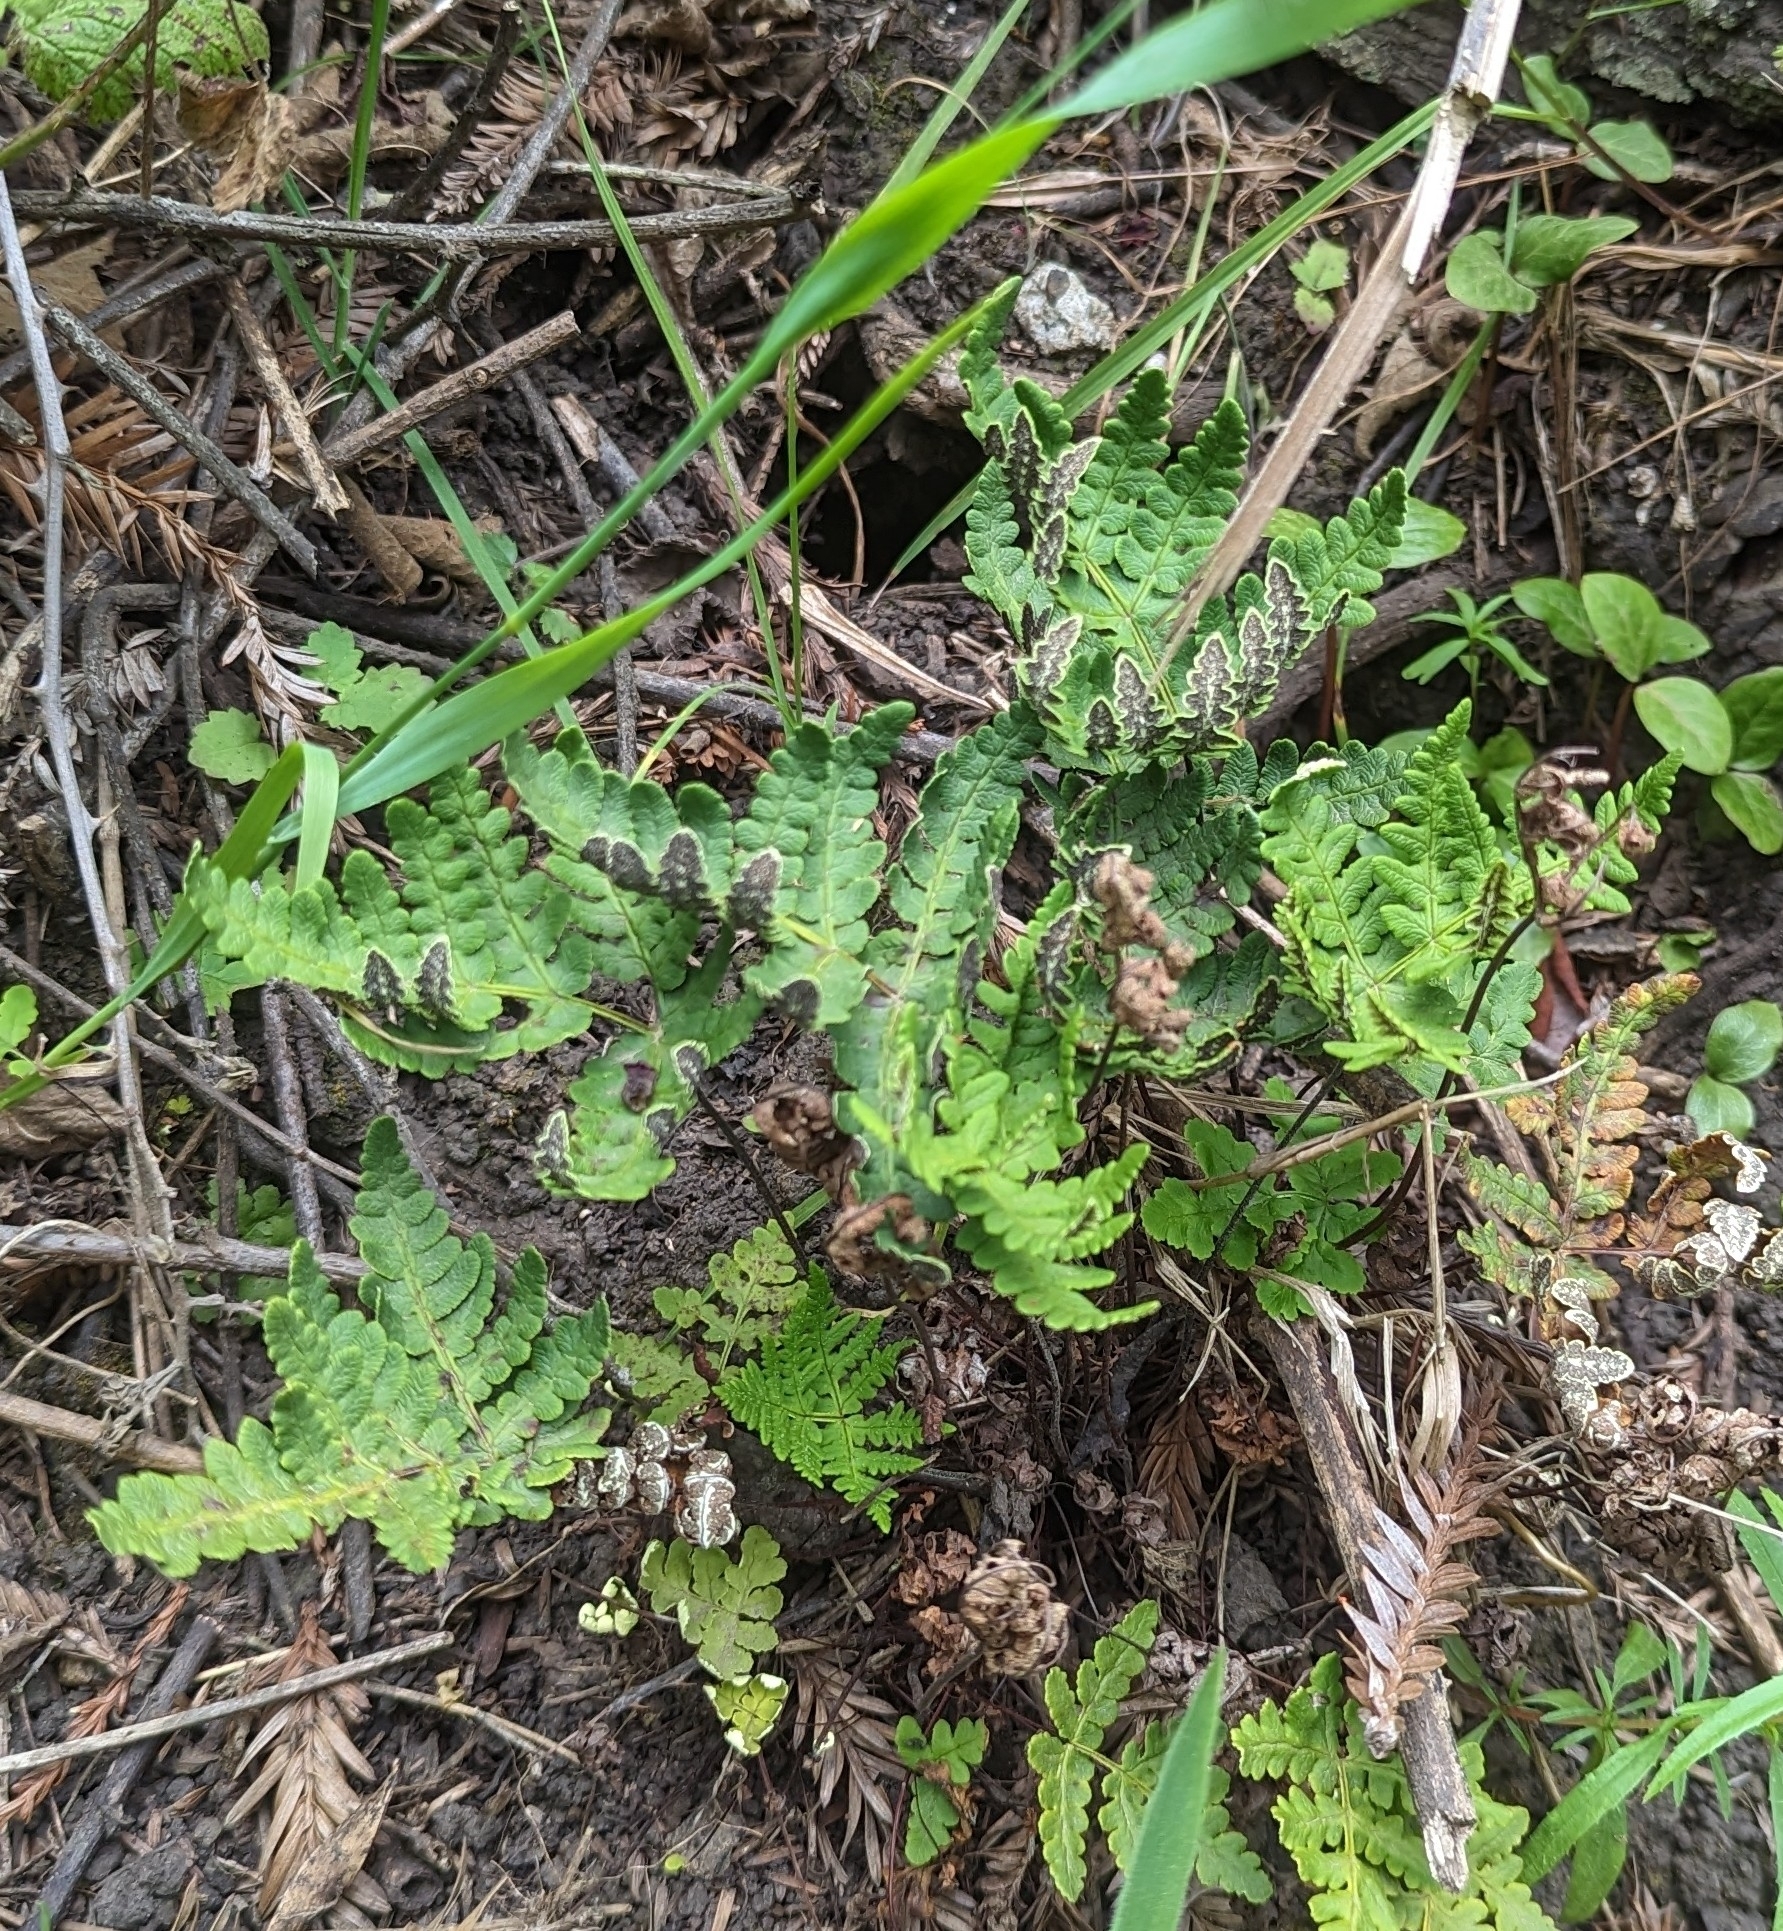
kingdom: Plantae
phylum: Tracheophyta
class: Polypodiopsida
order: Polypodiales
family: Pteridaceae
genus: Pentagramma
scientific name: Pentagramma triangularis
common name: Gold fern
